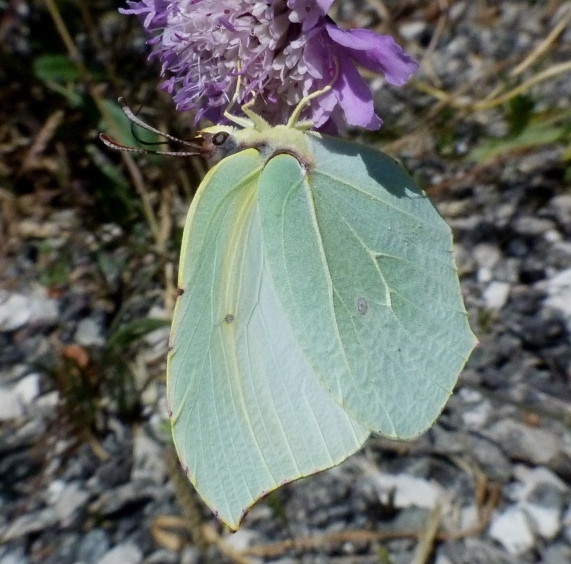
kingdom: Animalia
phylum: Arthropoda
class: Insecta
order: Lepidoptera
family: Pieridae
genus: Gonepteryx
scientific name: Gonepteryx cleopatra
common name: Cleopatra
